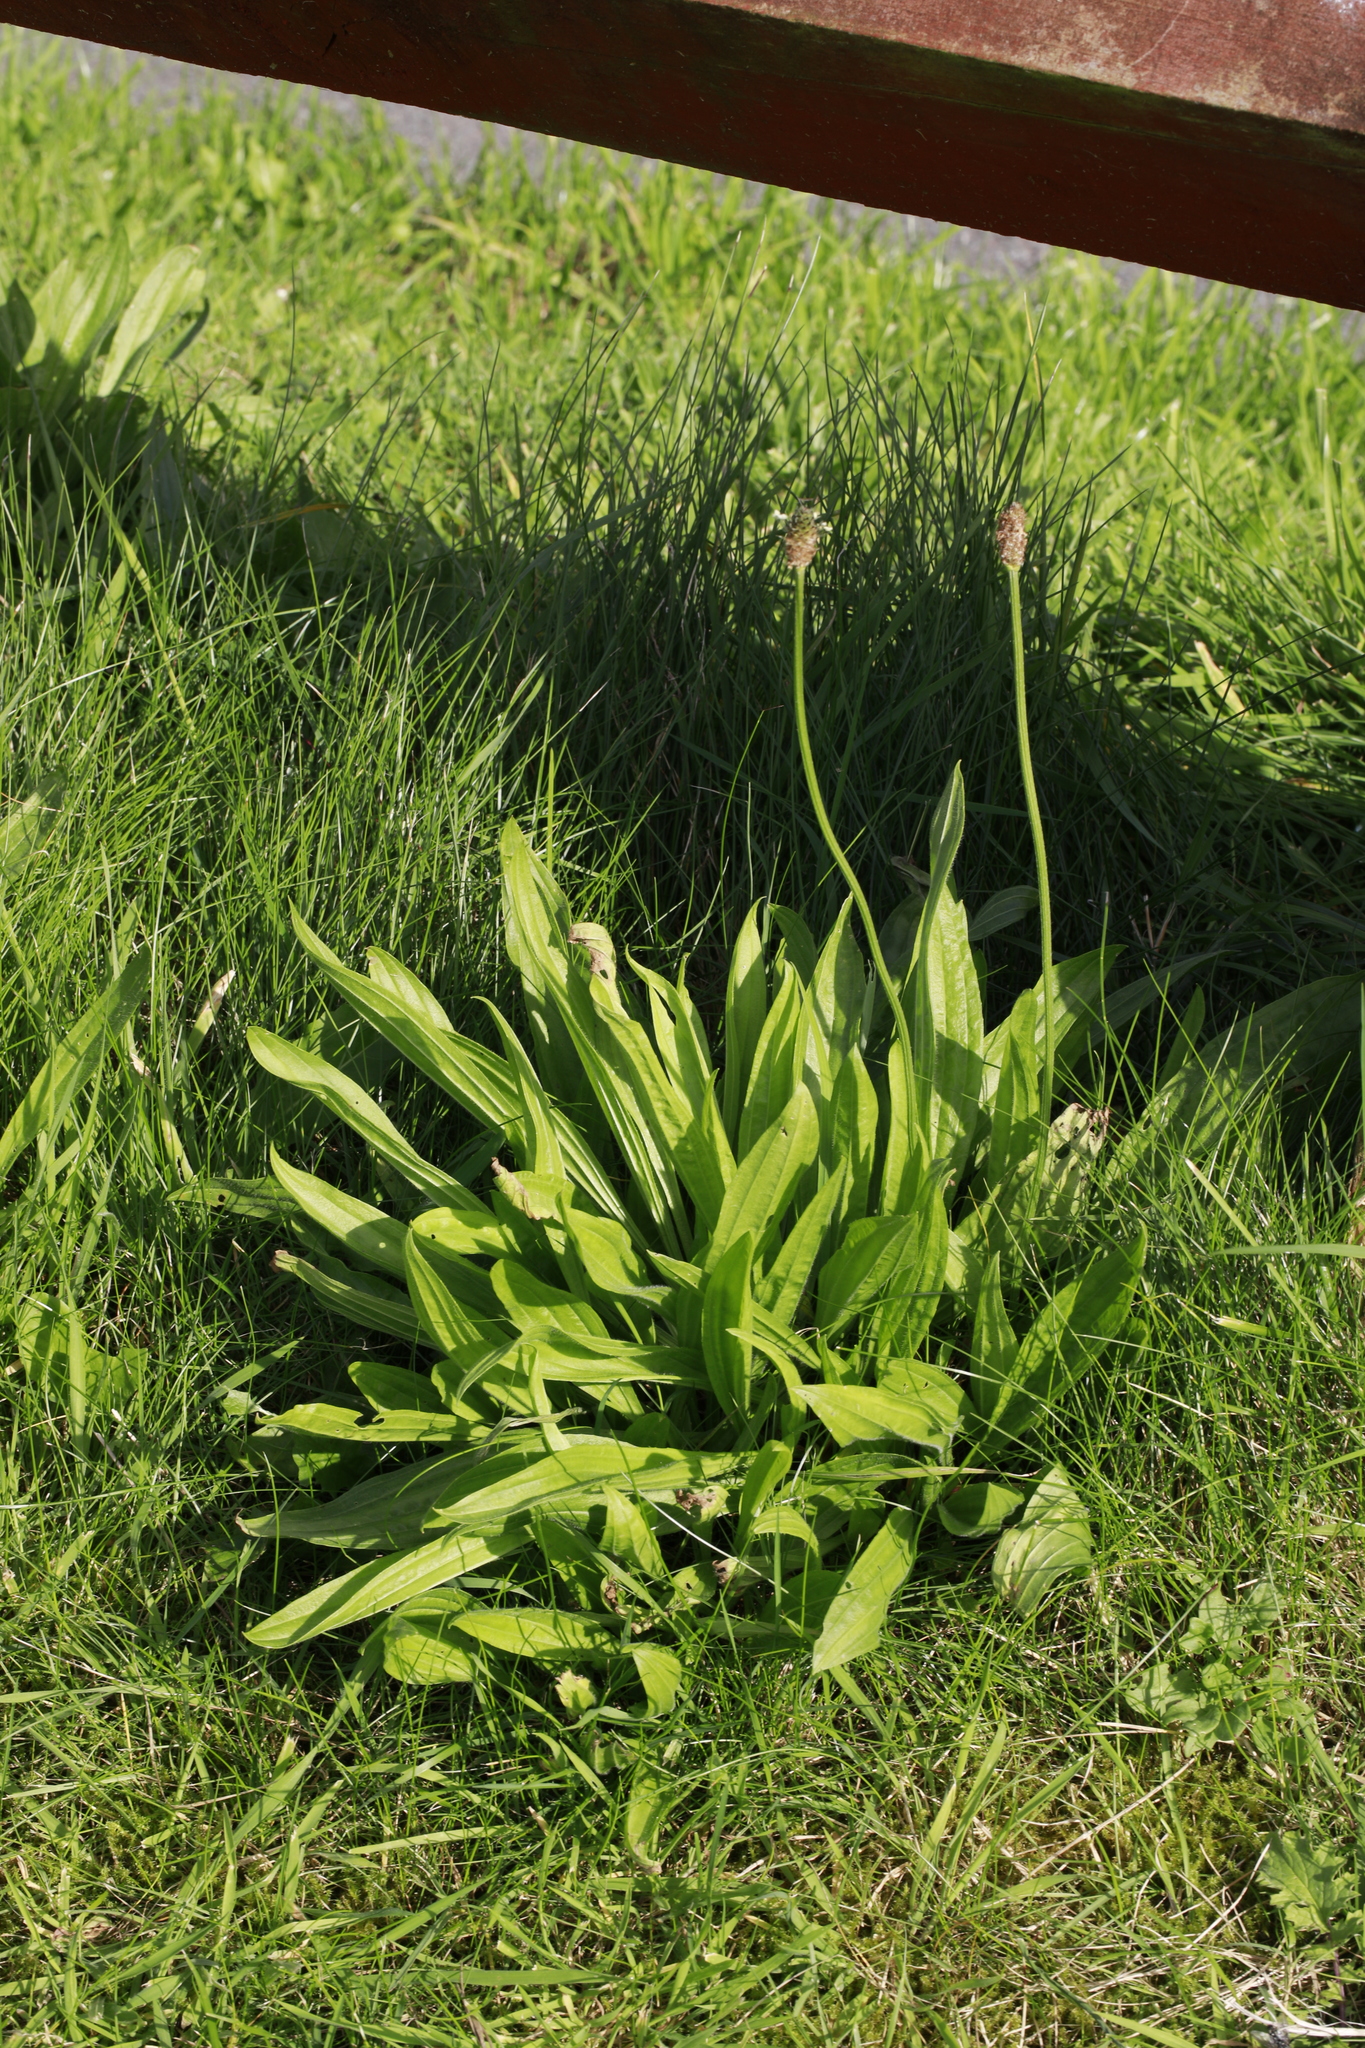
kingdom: Plantae
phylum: Tracheophyta
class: Magnoliopsida
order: Lamiales
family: Plantaginaceae
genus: Plantago
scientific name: Plantago lanceolata
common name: Ribwort plantain
